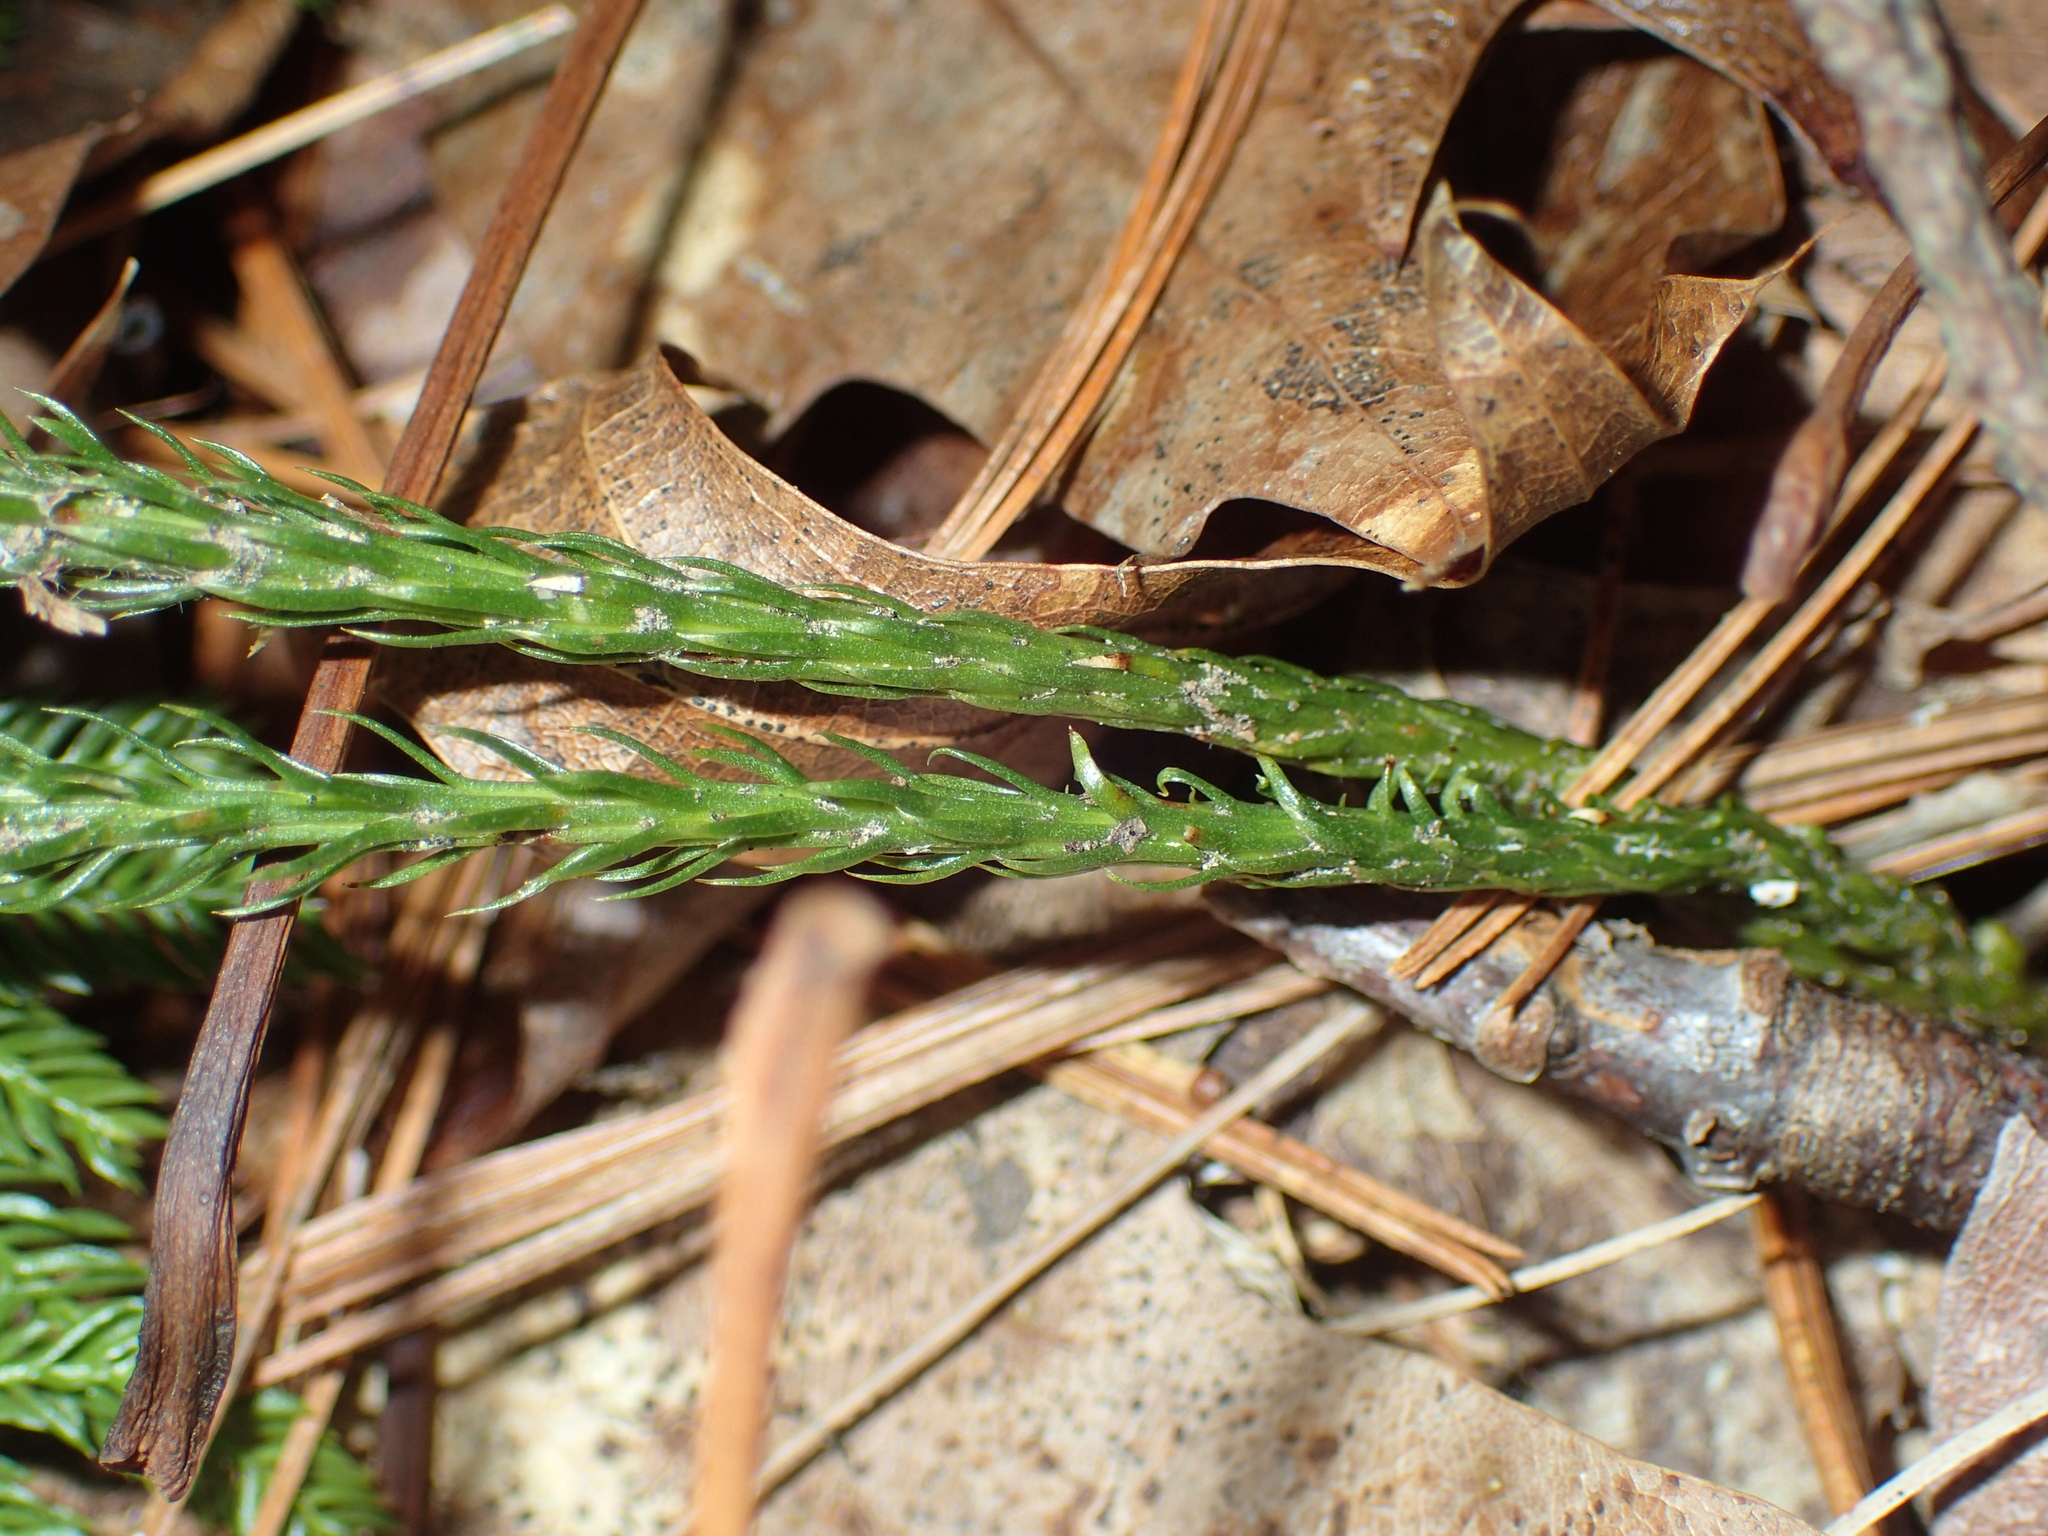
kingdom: Plantae
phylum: Tracheophyta
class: Lycopodiopsida
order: Lycopodiales
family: Lycopodiaceae
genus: Dendrolycopodium
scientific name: Dendrolycopodium obscurum
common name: Common ground-pine
